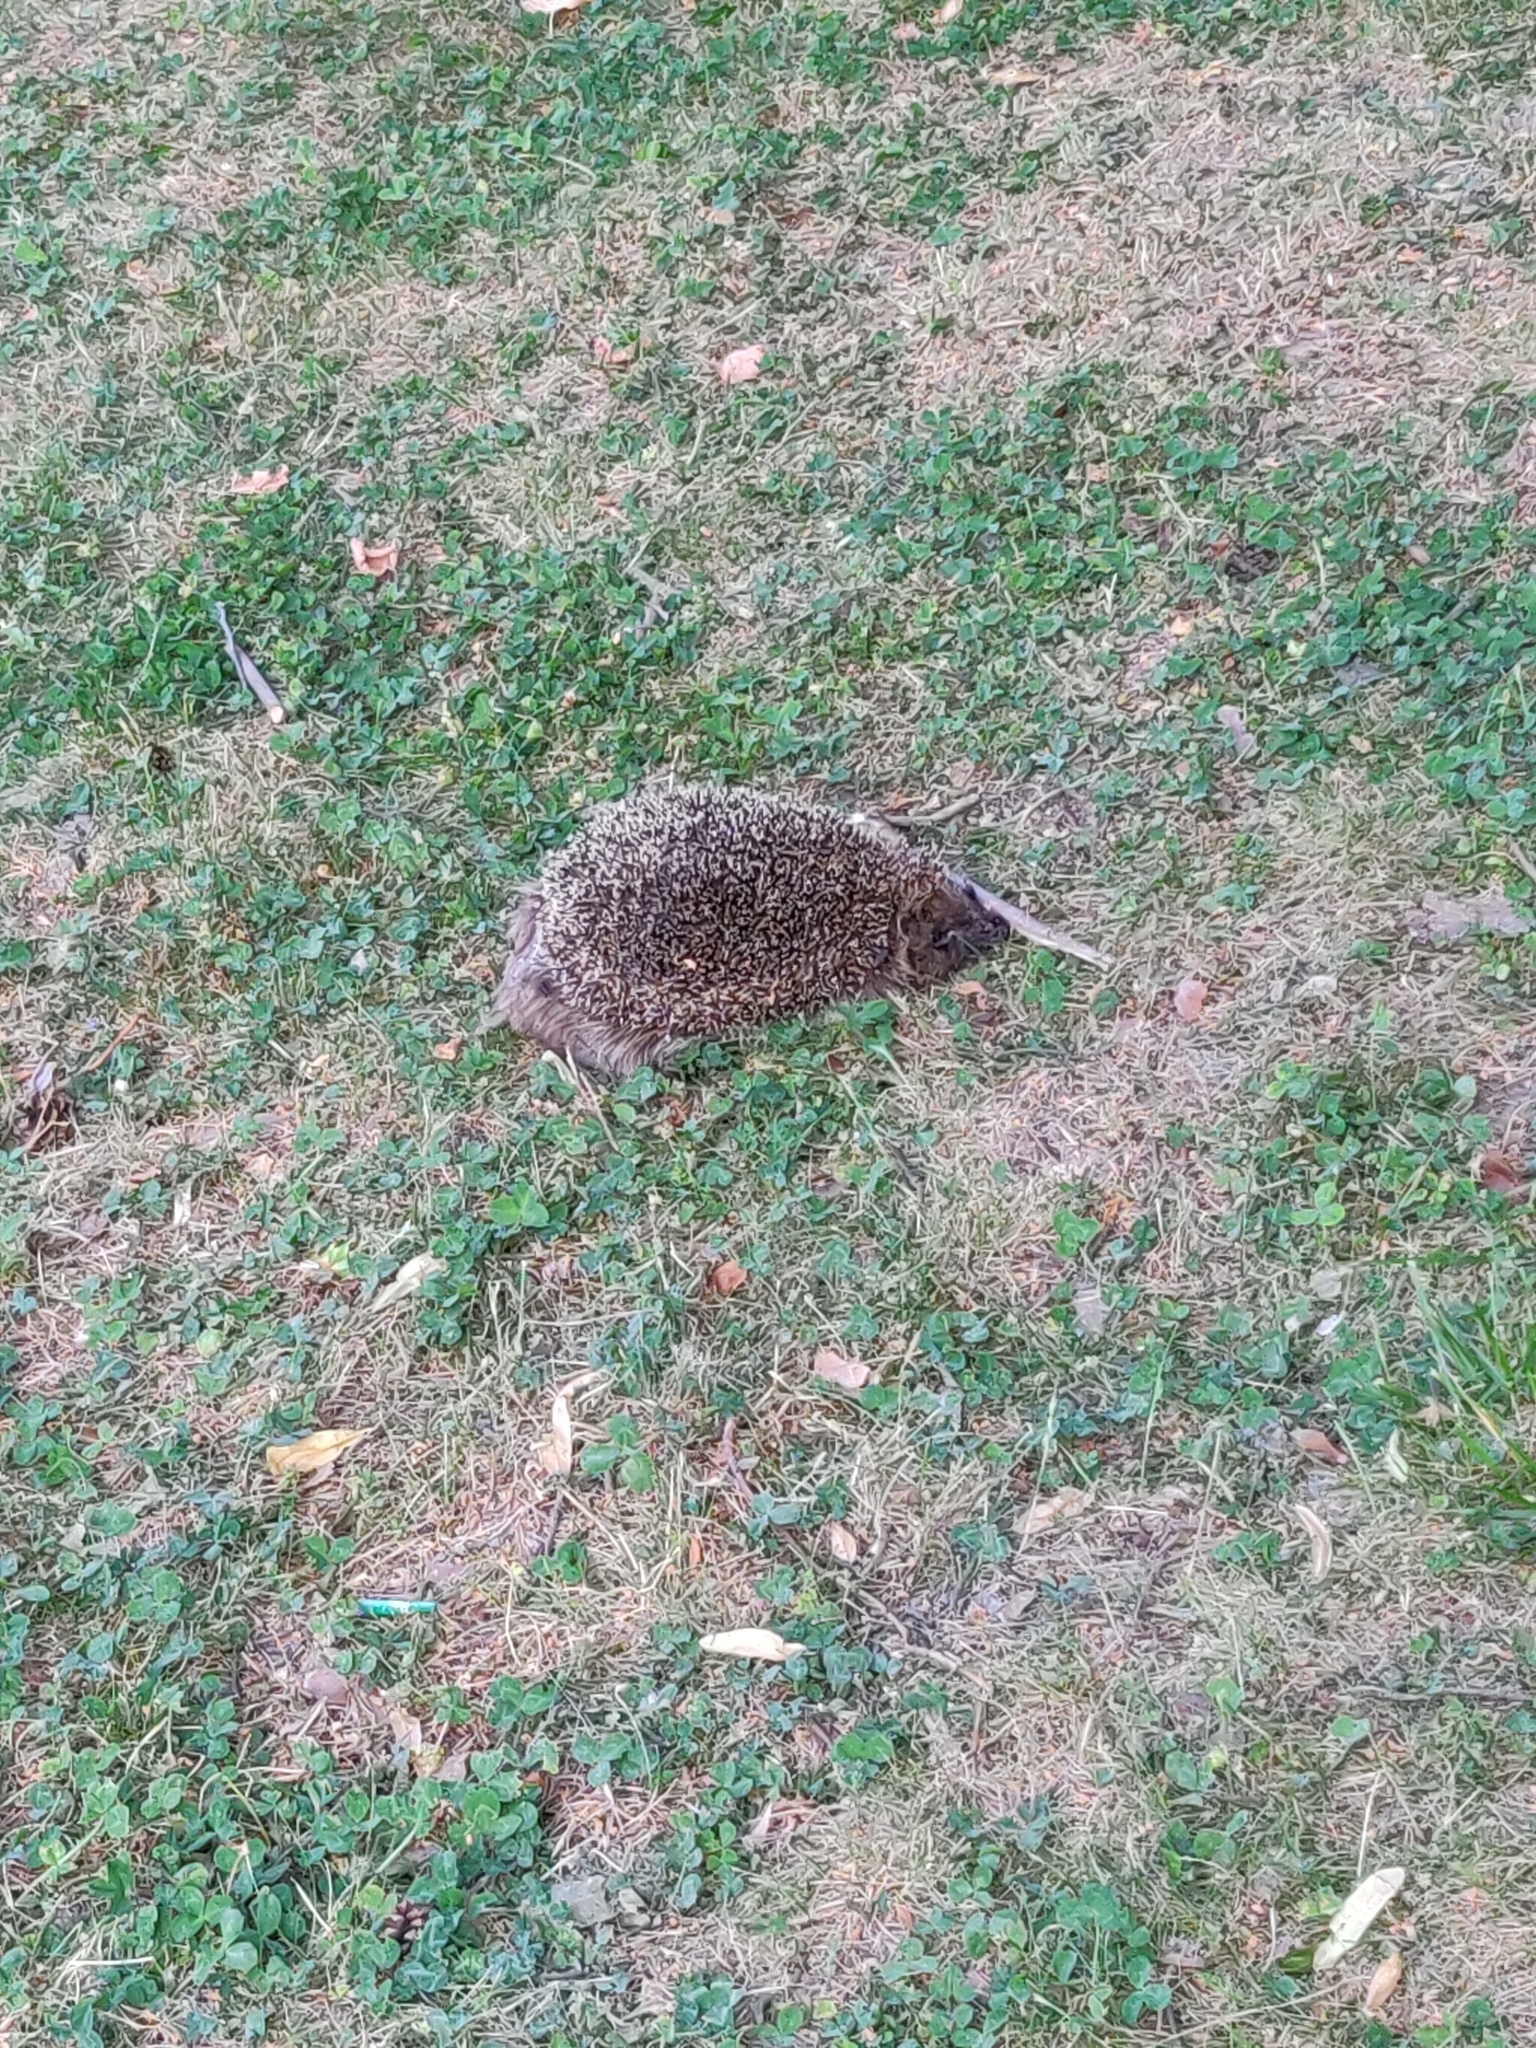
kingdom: Animalia
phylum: Chordata
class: Mammalia
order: Erinaceomorpha
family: Erinaceidae
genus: Erinaceus
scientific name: Erinaceus europaeus
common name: West european hedgehog
